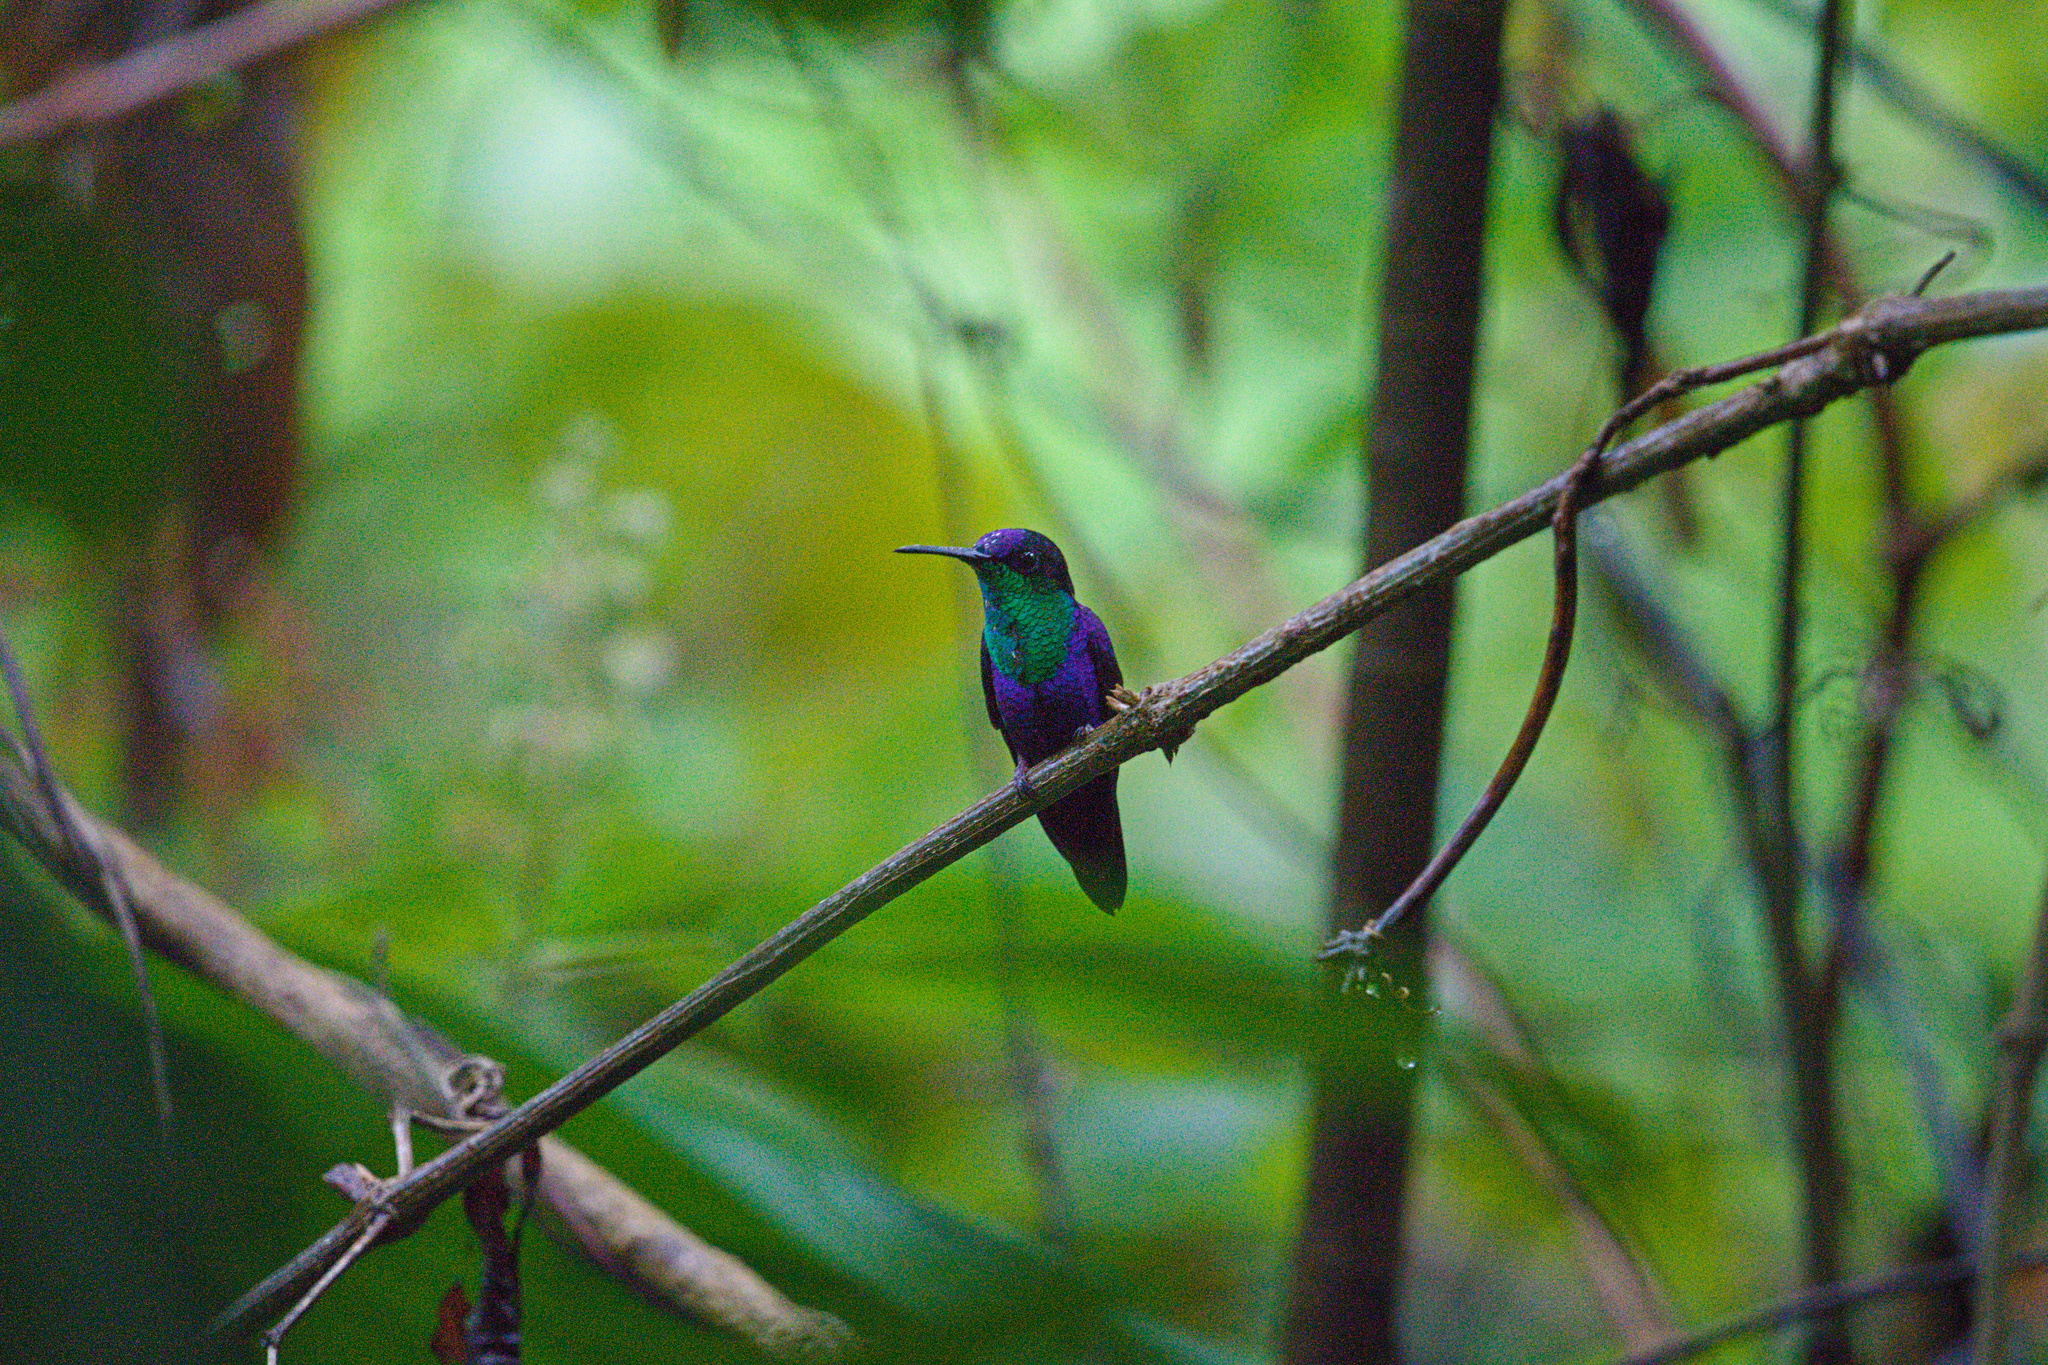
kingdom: Animalia
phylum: Chordata
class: Aves
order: Apodiformes
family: Trochilidae
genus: Thalurania
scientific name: Thalurania colombica
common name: Crowned woodnymph
